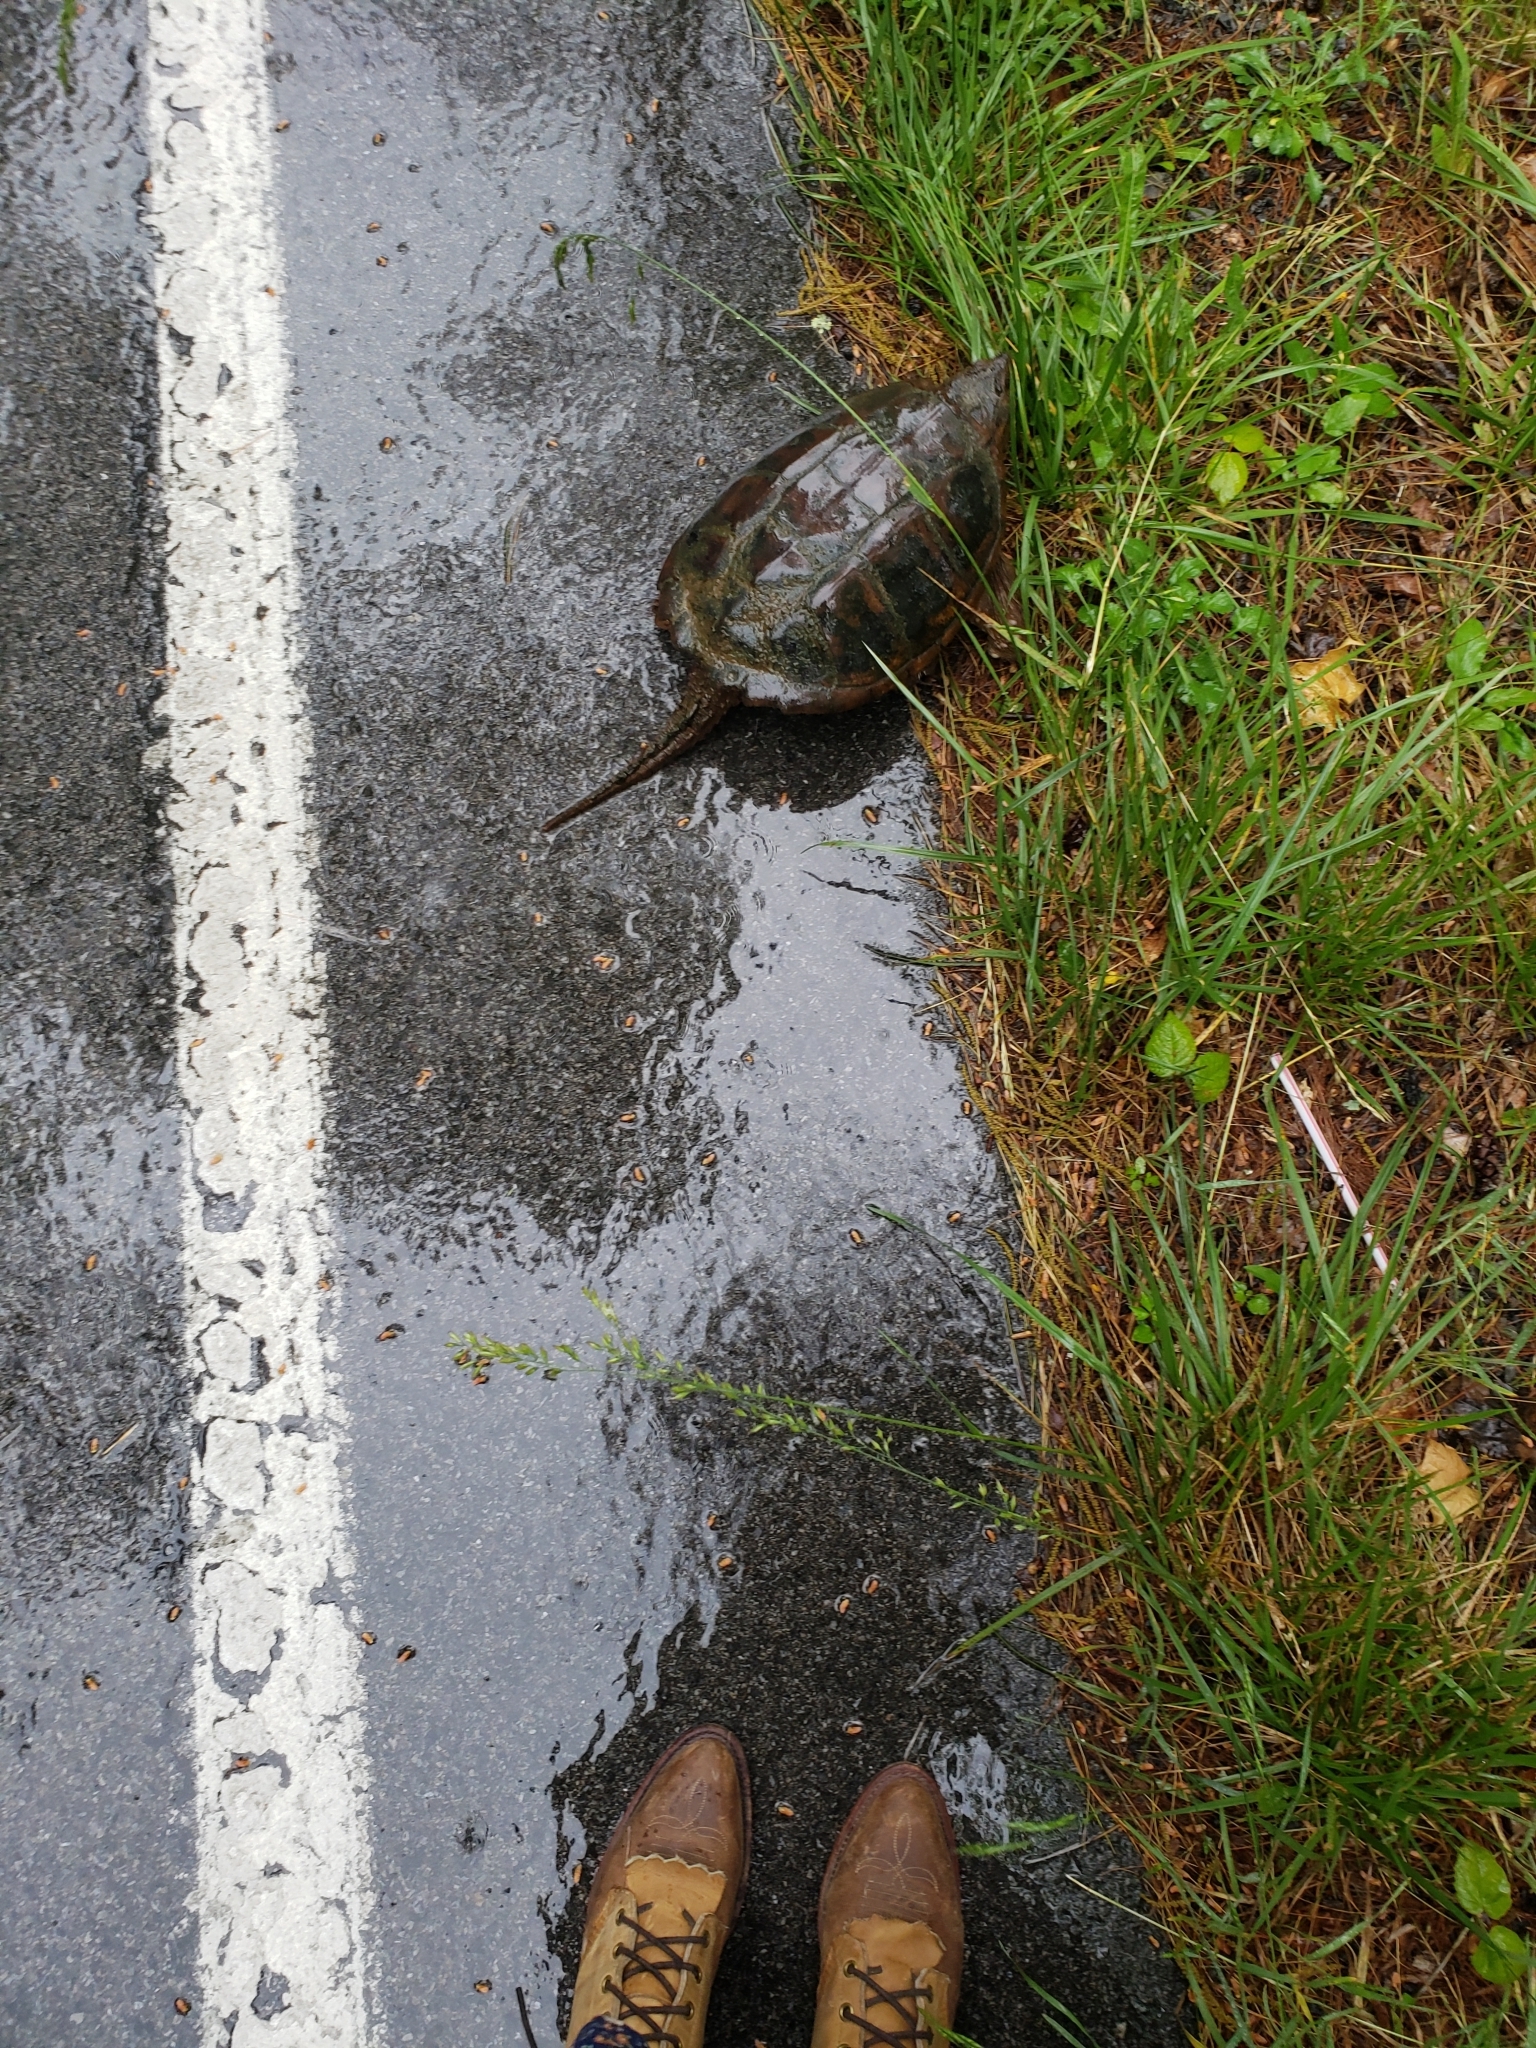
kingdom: Animalia
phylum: Chordata
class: Testudines
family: Chelydridae
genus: Chelydra
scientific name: Chelydra serpentina
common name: Common snapping turtle
